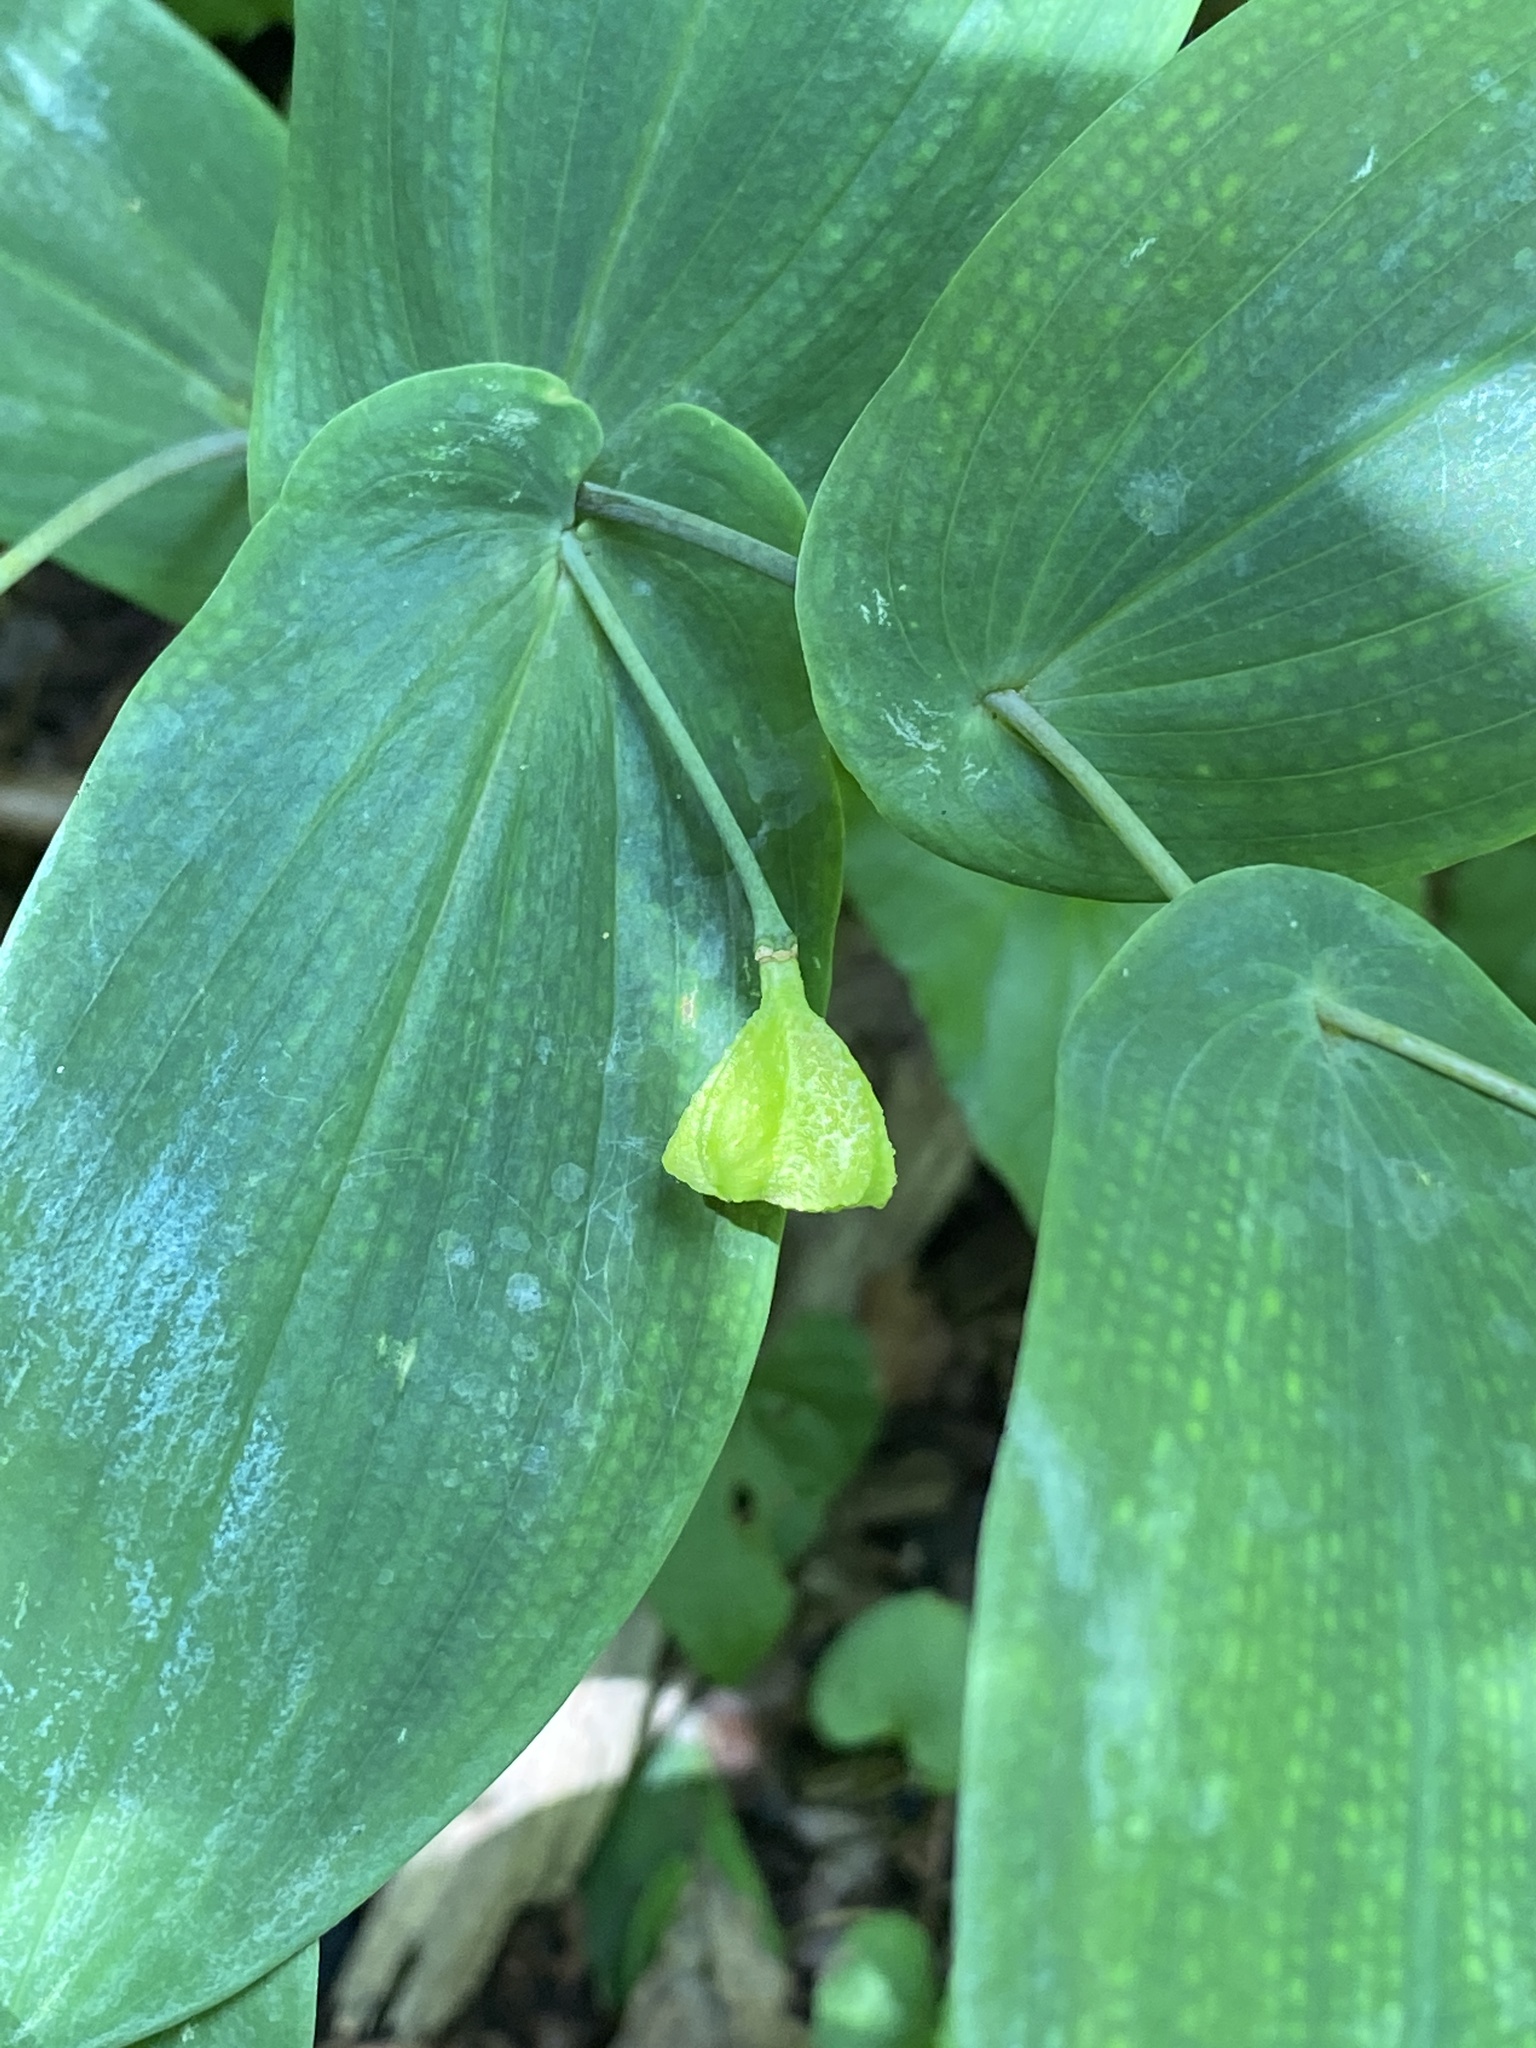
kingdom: Plantae
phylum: Tracheophyta
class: Liliopsida
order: Liliales
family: Colchicaceae
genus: Uvularia
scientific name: Uvularia perfoliata
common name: Perfoliate bellwort
